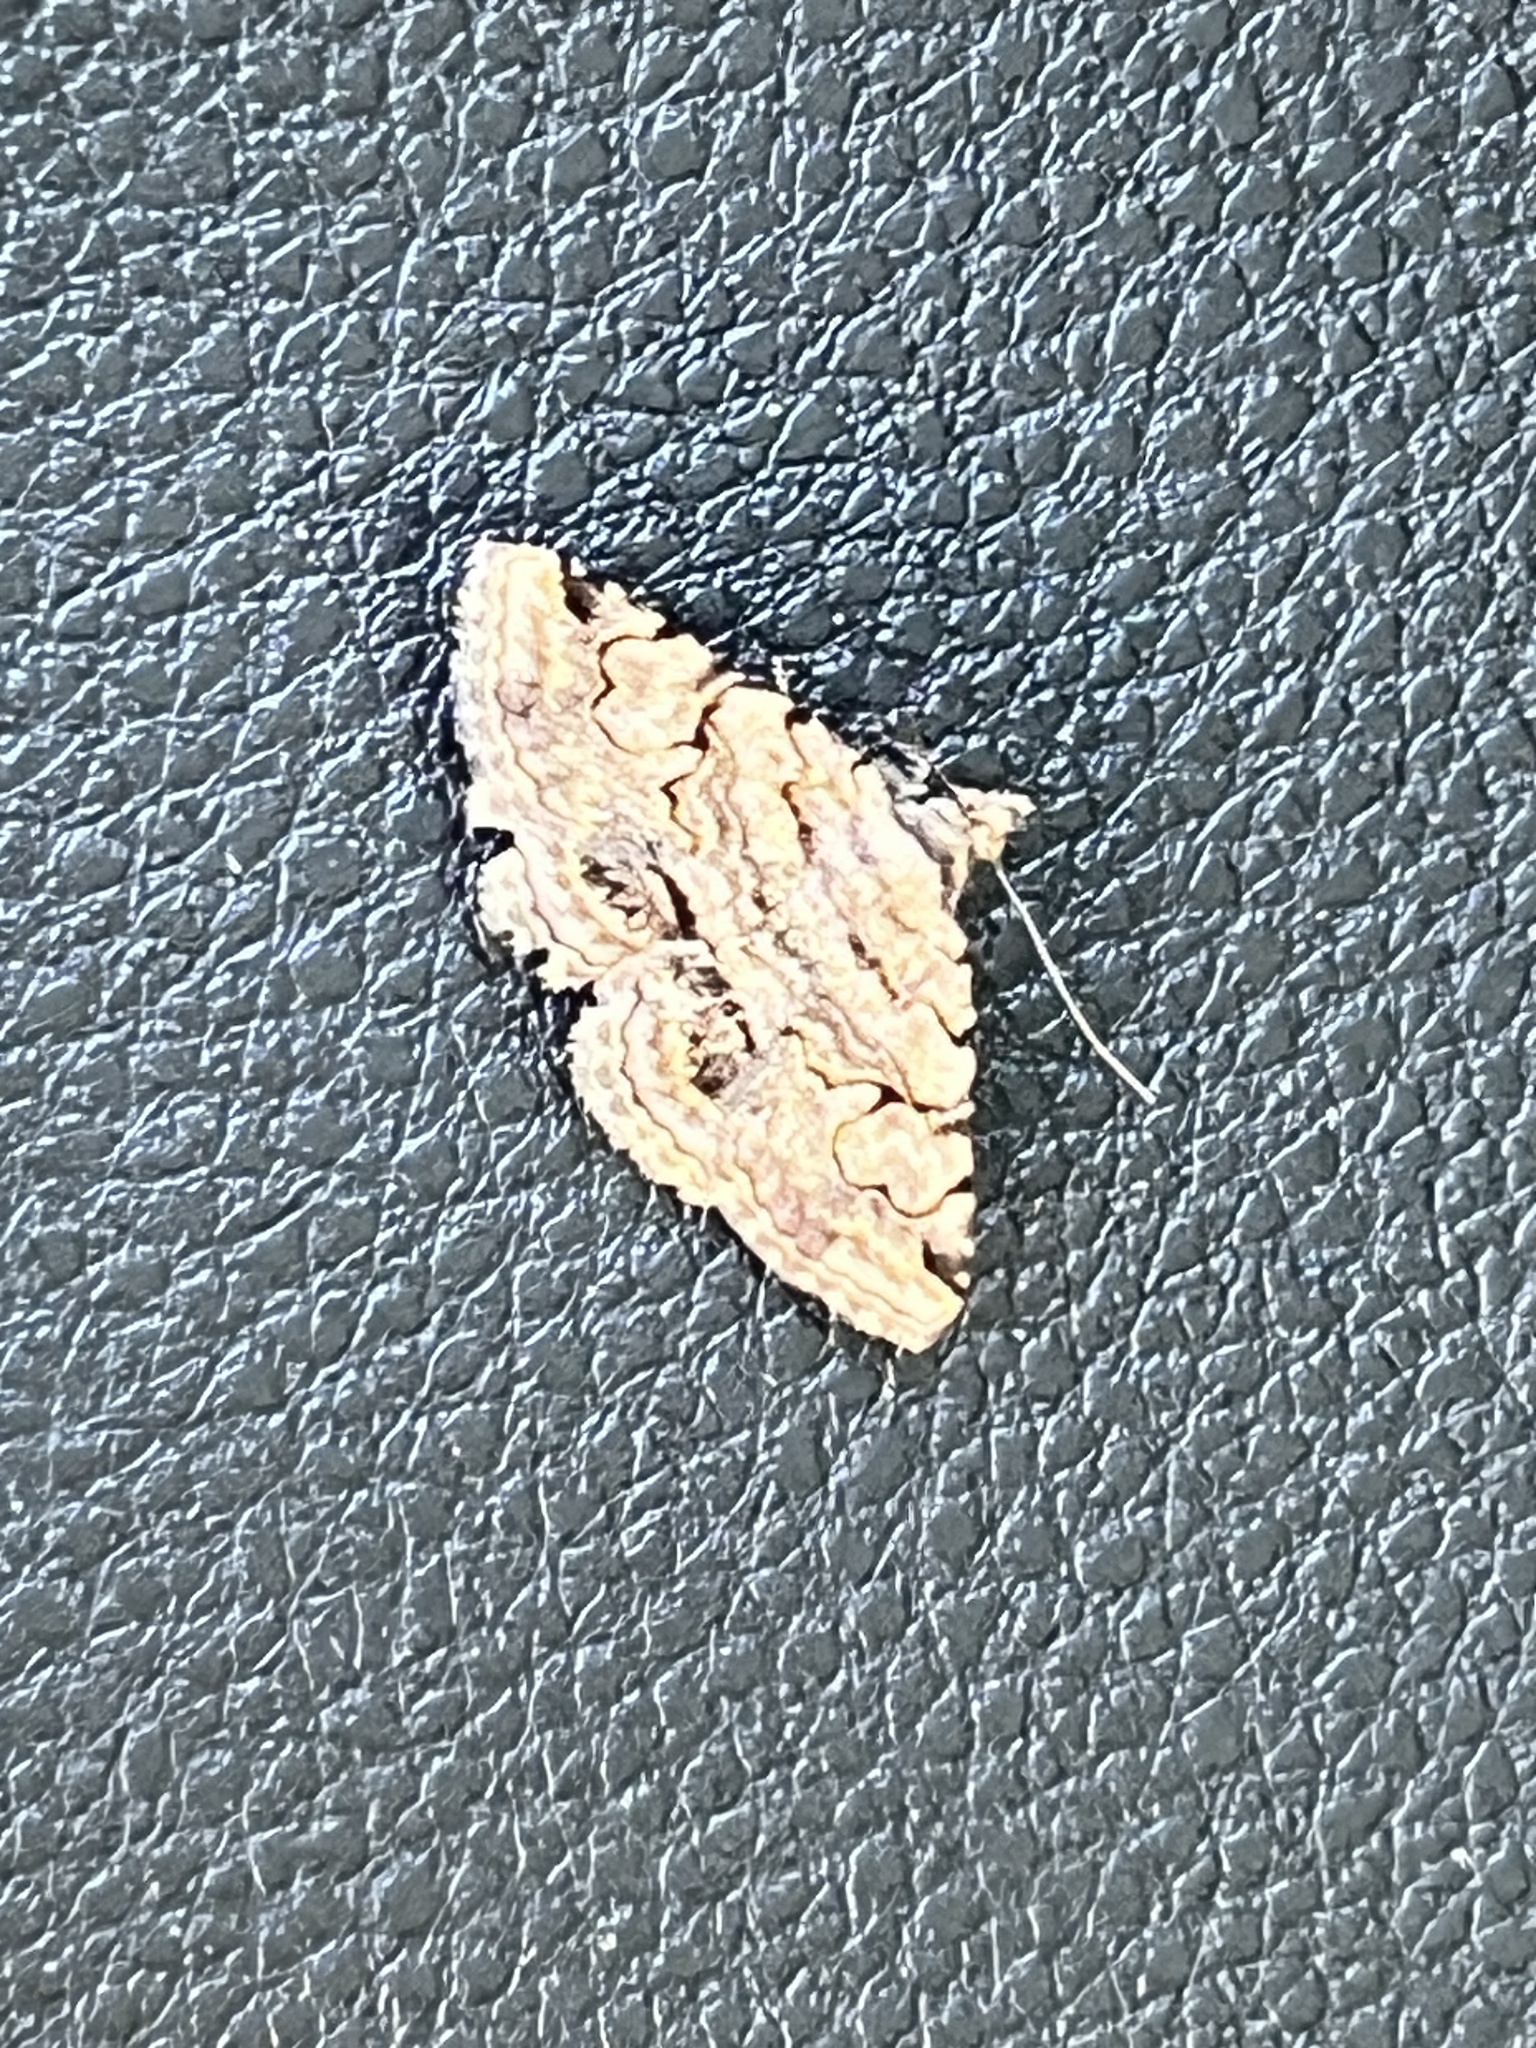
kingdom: Animalia
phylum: Arthropoda
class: Insecta
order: Lepidoptera
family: Erebidae
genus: Toxonprucha
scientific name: Toxonprucha crudelis
